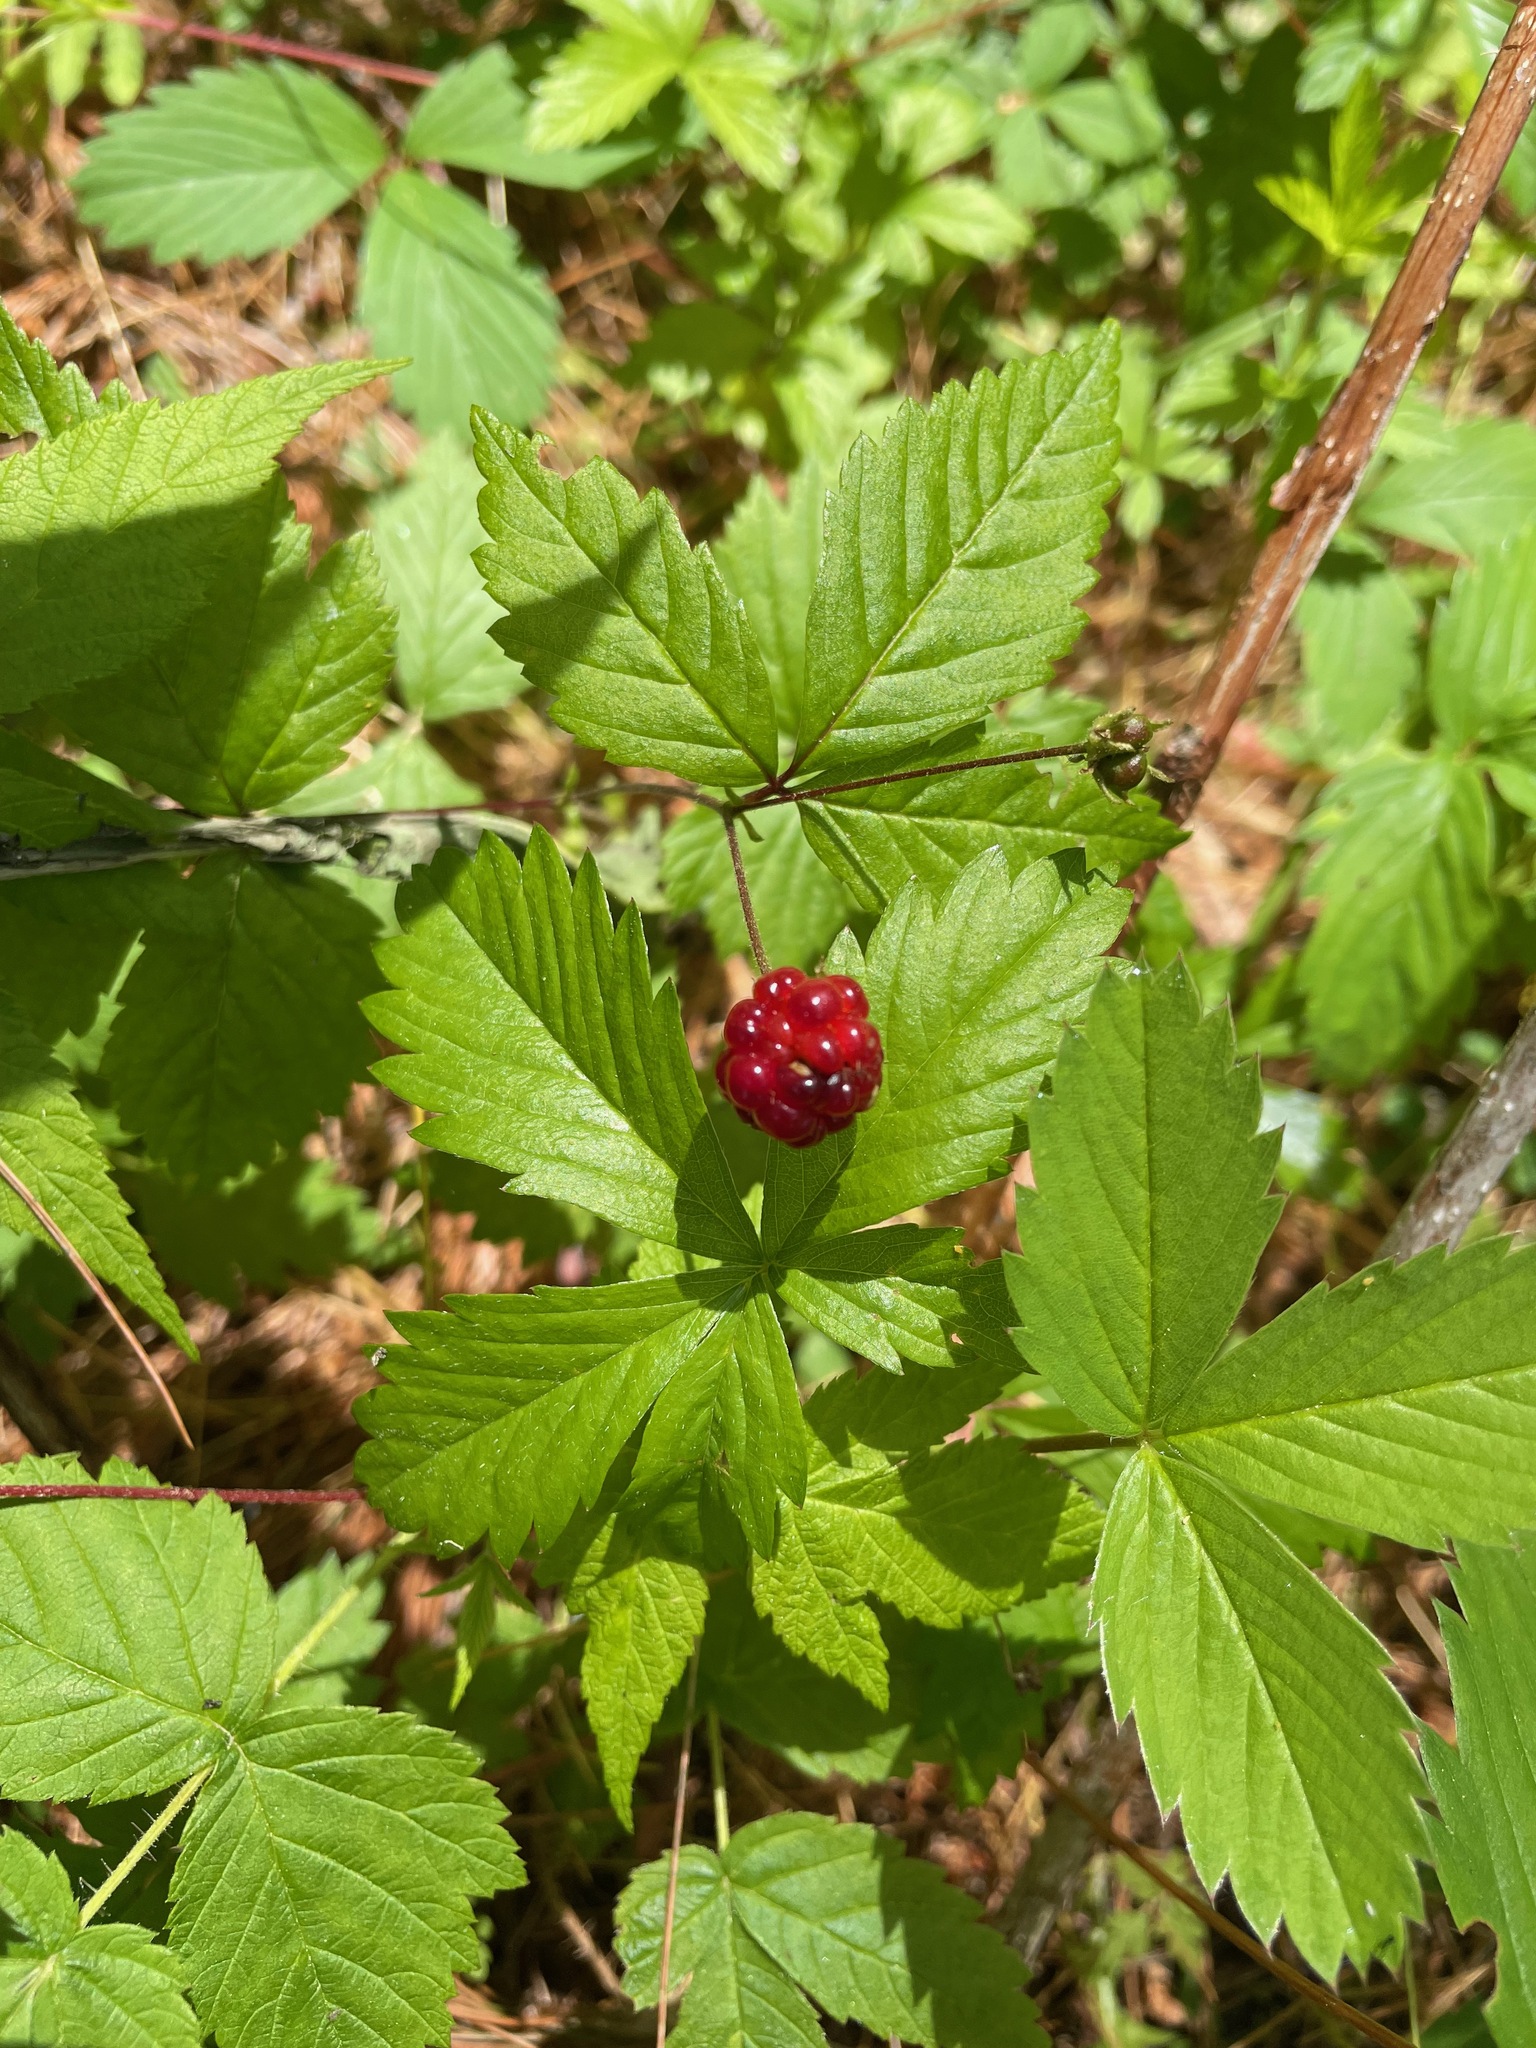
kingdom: Plantae
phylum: Tracheophyta
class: Magnoliopsida
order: Rosales
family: Rosaceae
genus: Rubus
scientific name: Rubus pubescens
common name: Dwarf raspberry
